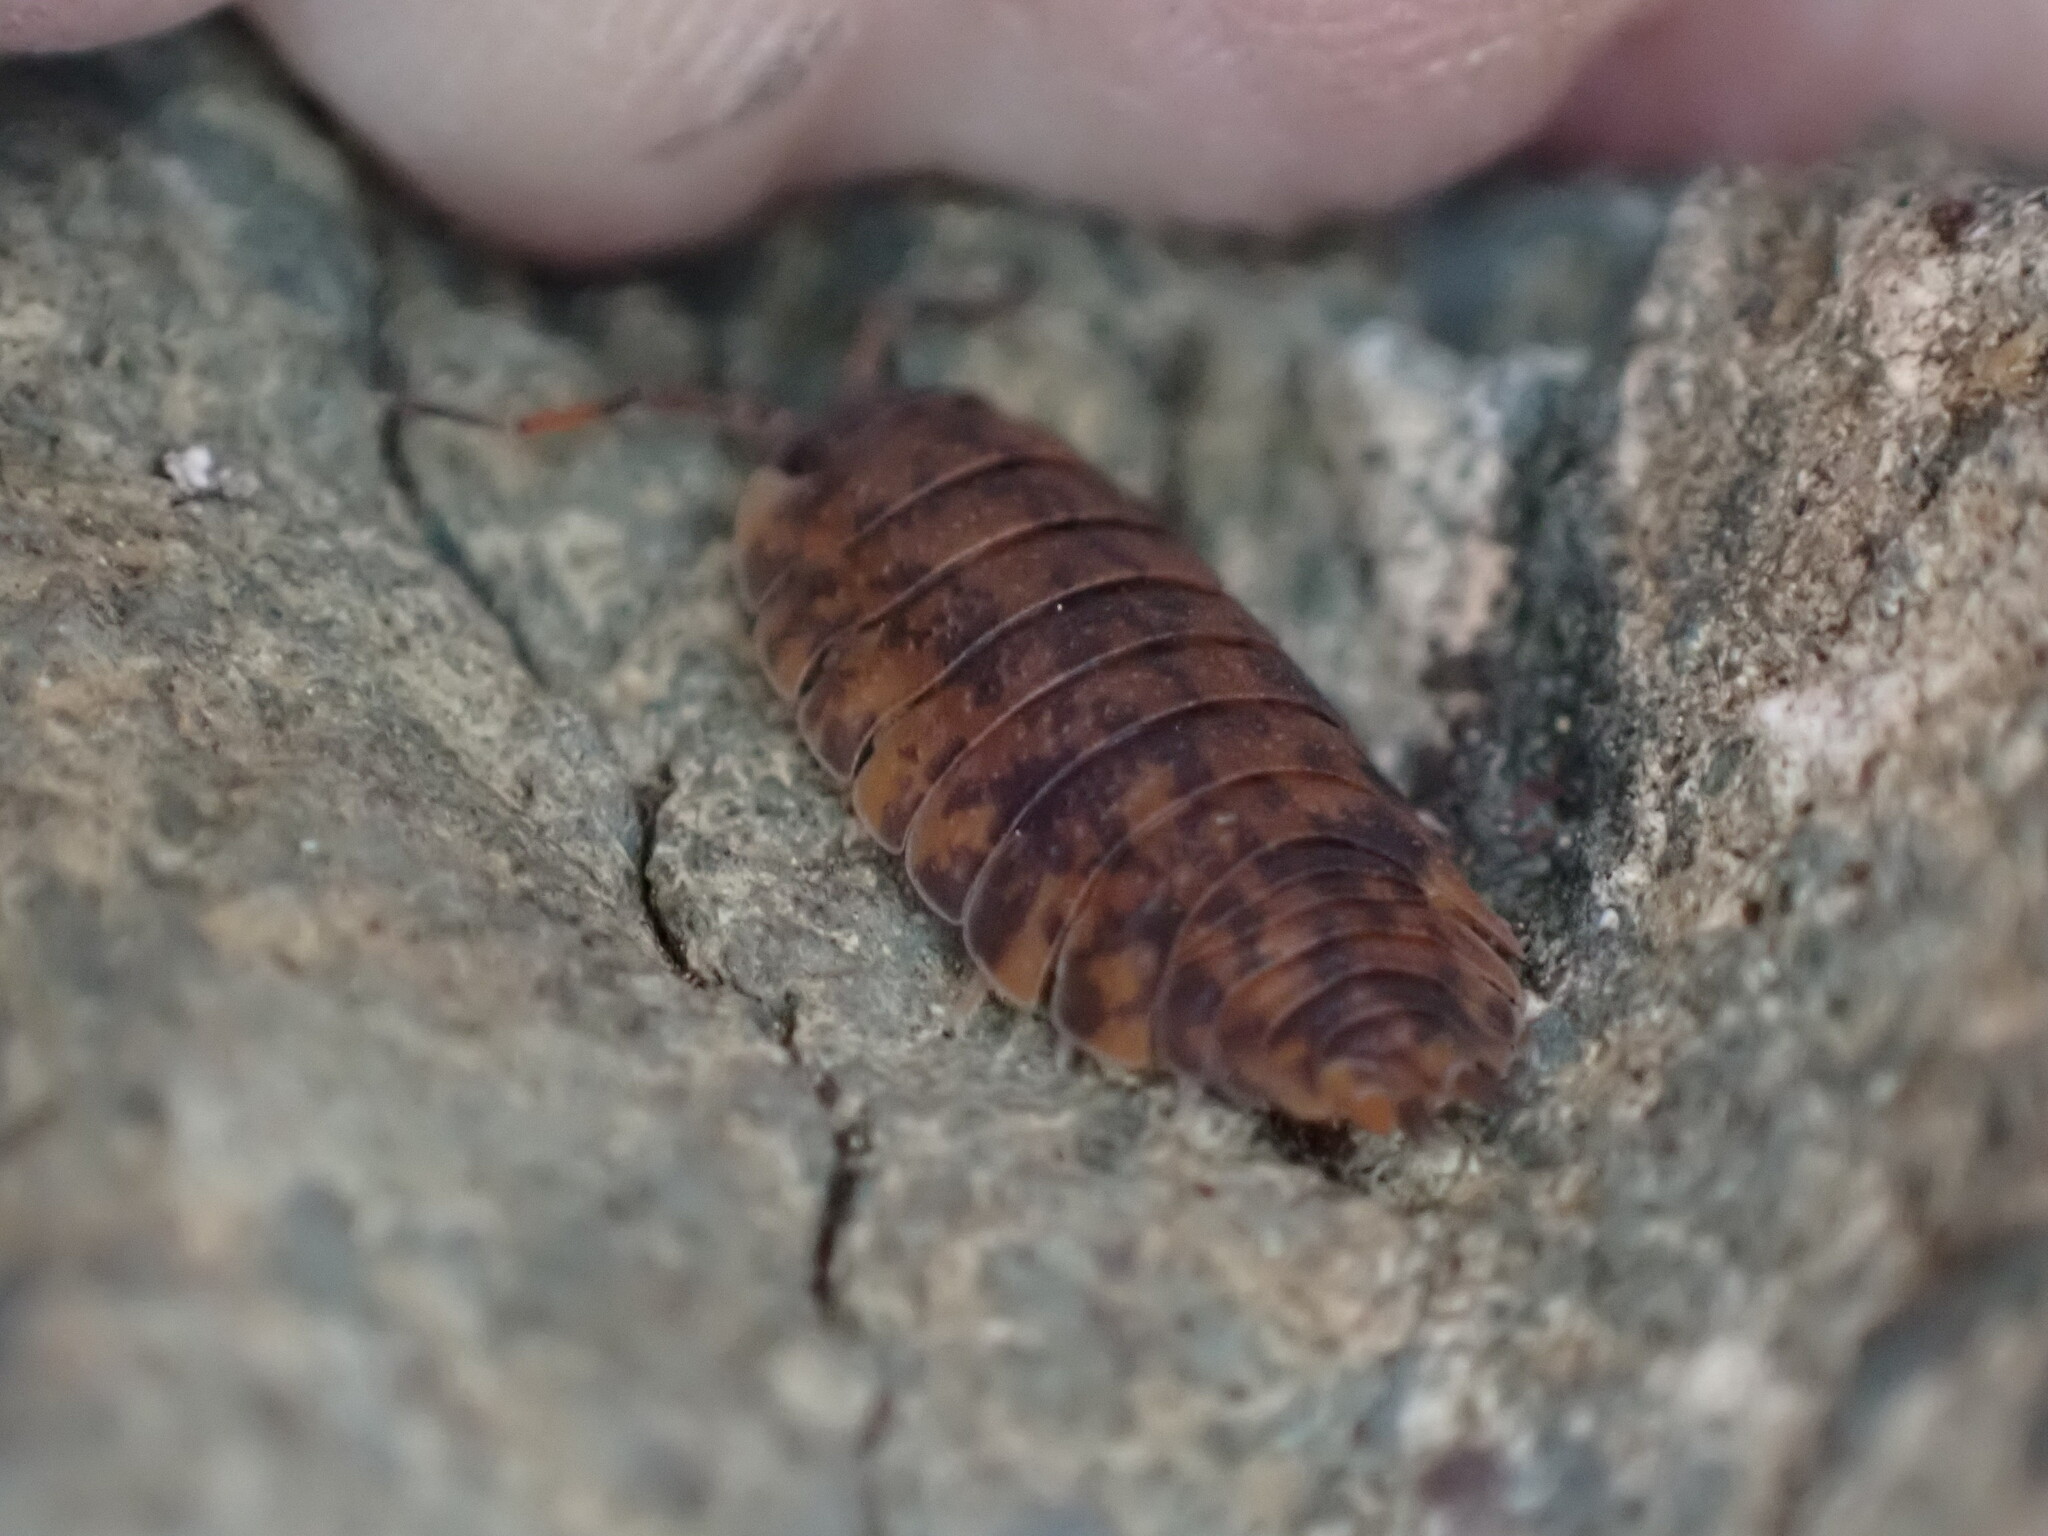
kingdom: Animalia
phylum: Arthropoda
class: Malacostraca
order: Isopoda
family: Porcellionidae
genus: Porcellio
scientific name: Porcellio scaber
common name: Common rough woodlouse
